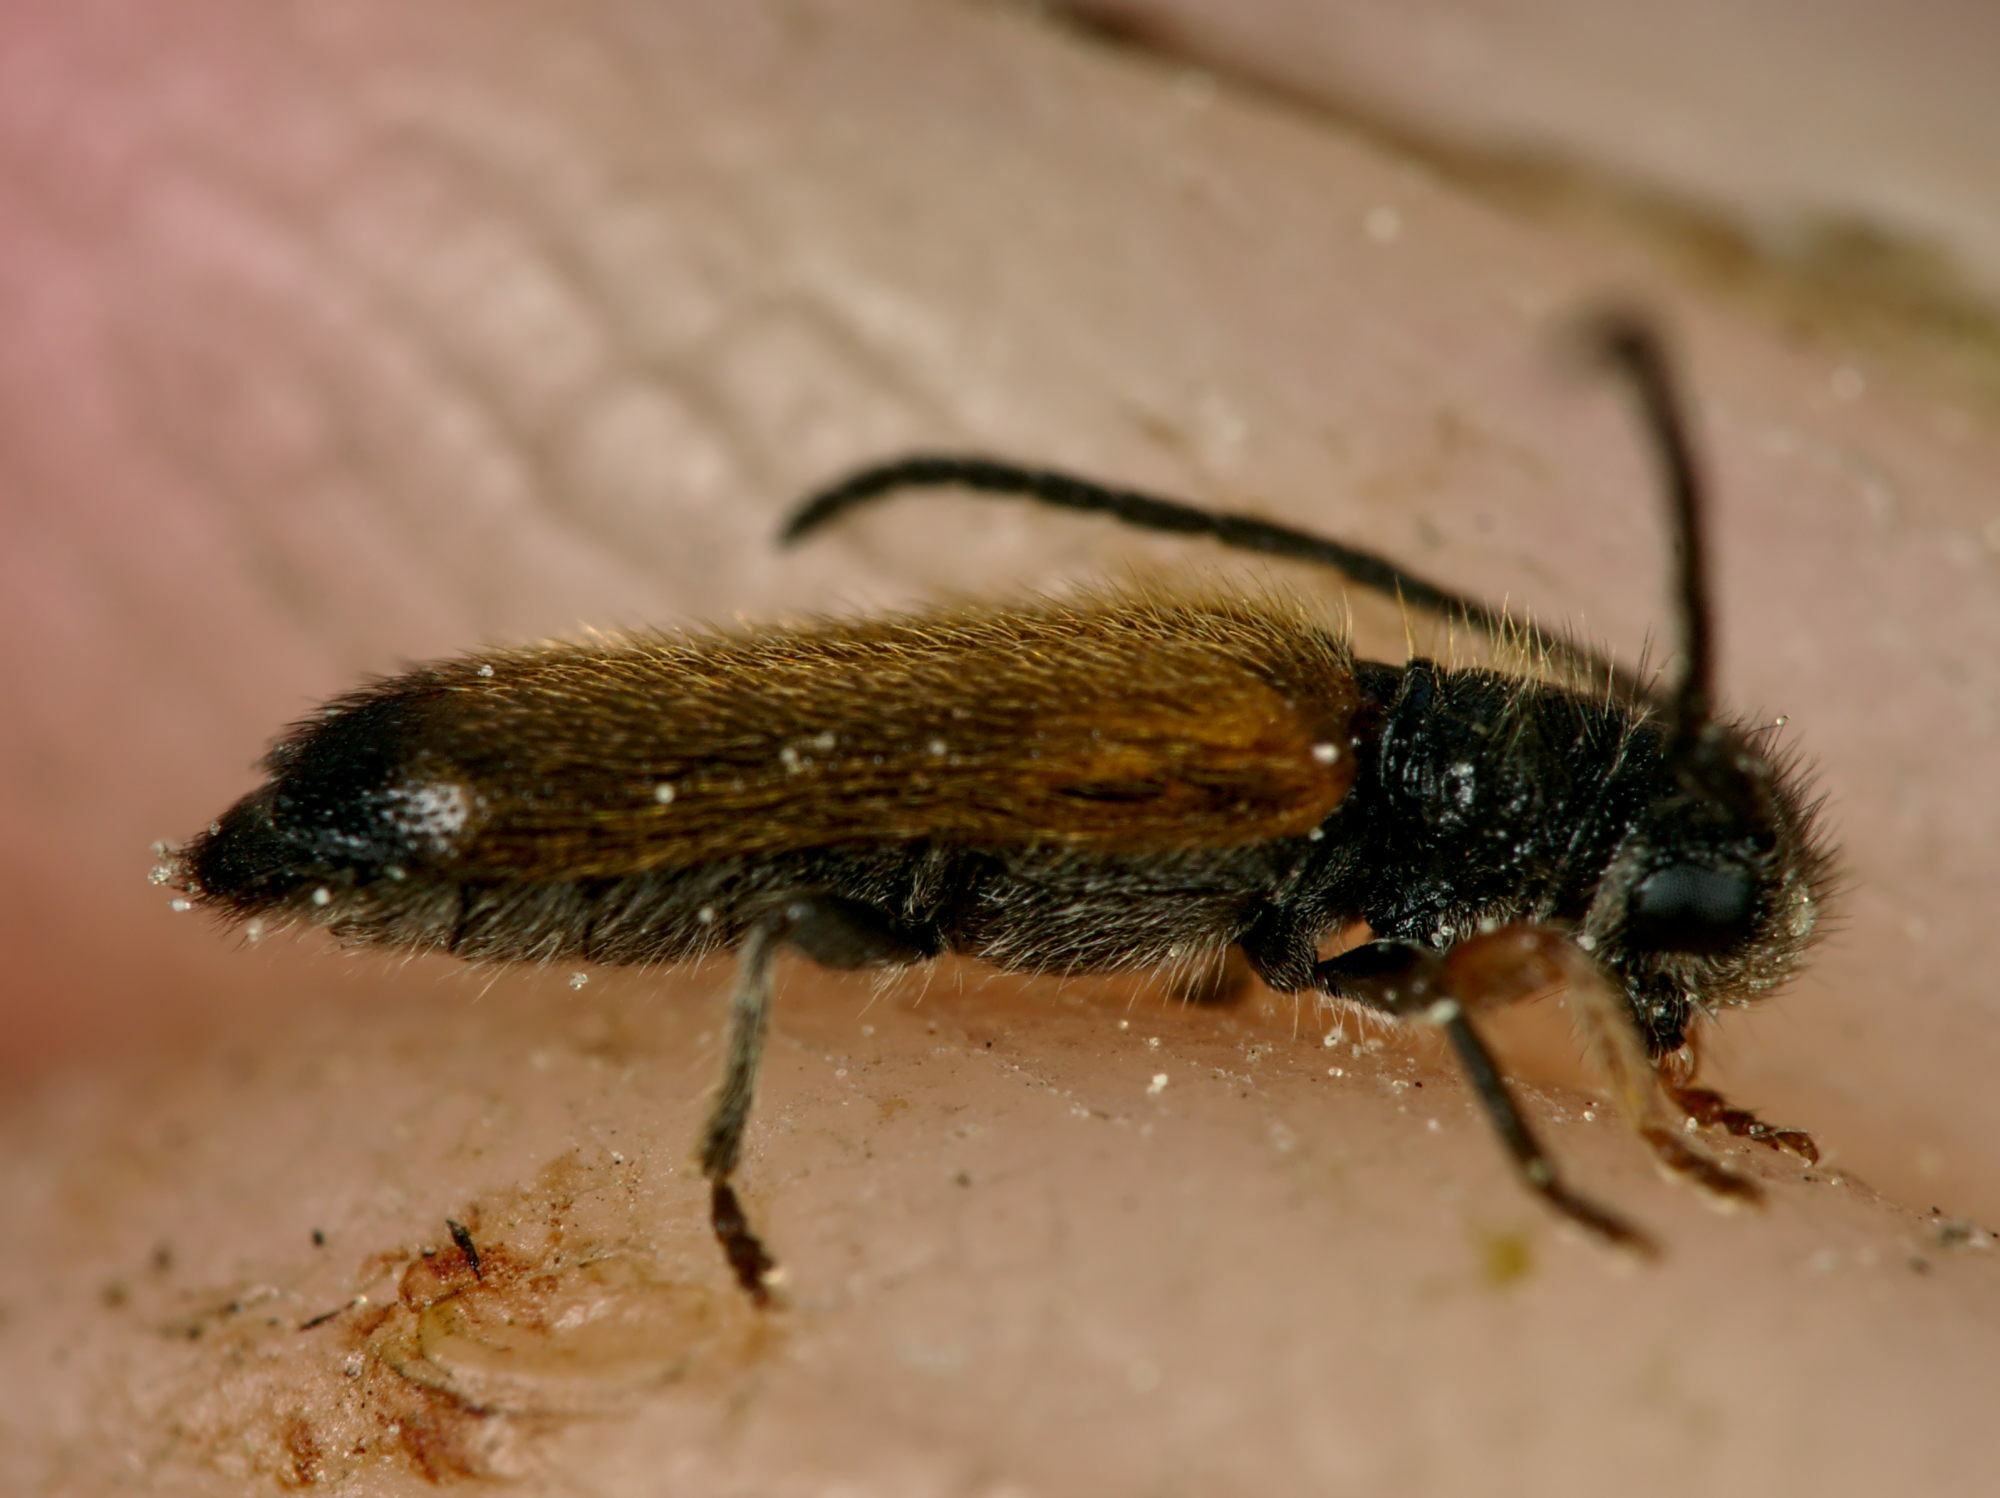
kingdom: Animalia
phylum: Arthropoda
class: Insecta
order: Coleoptera
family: Cerambycidae
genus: Tetrops
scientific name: Tetrops praeustus
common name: Plum beetle
